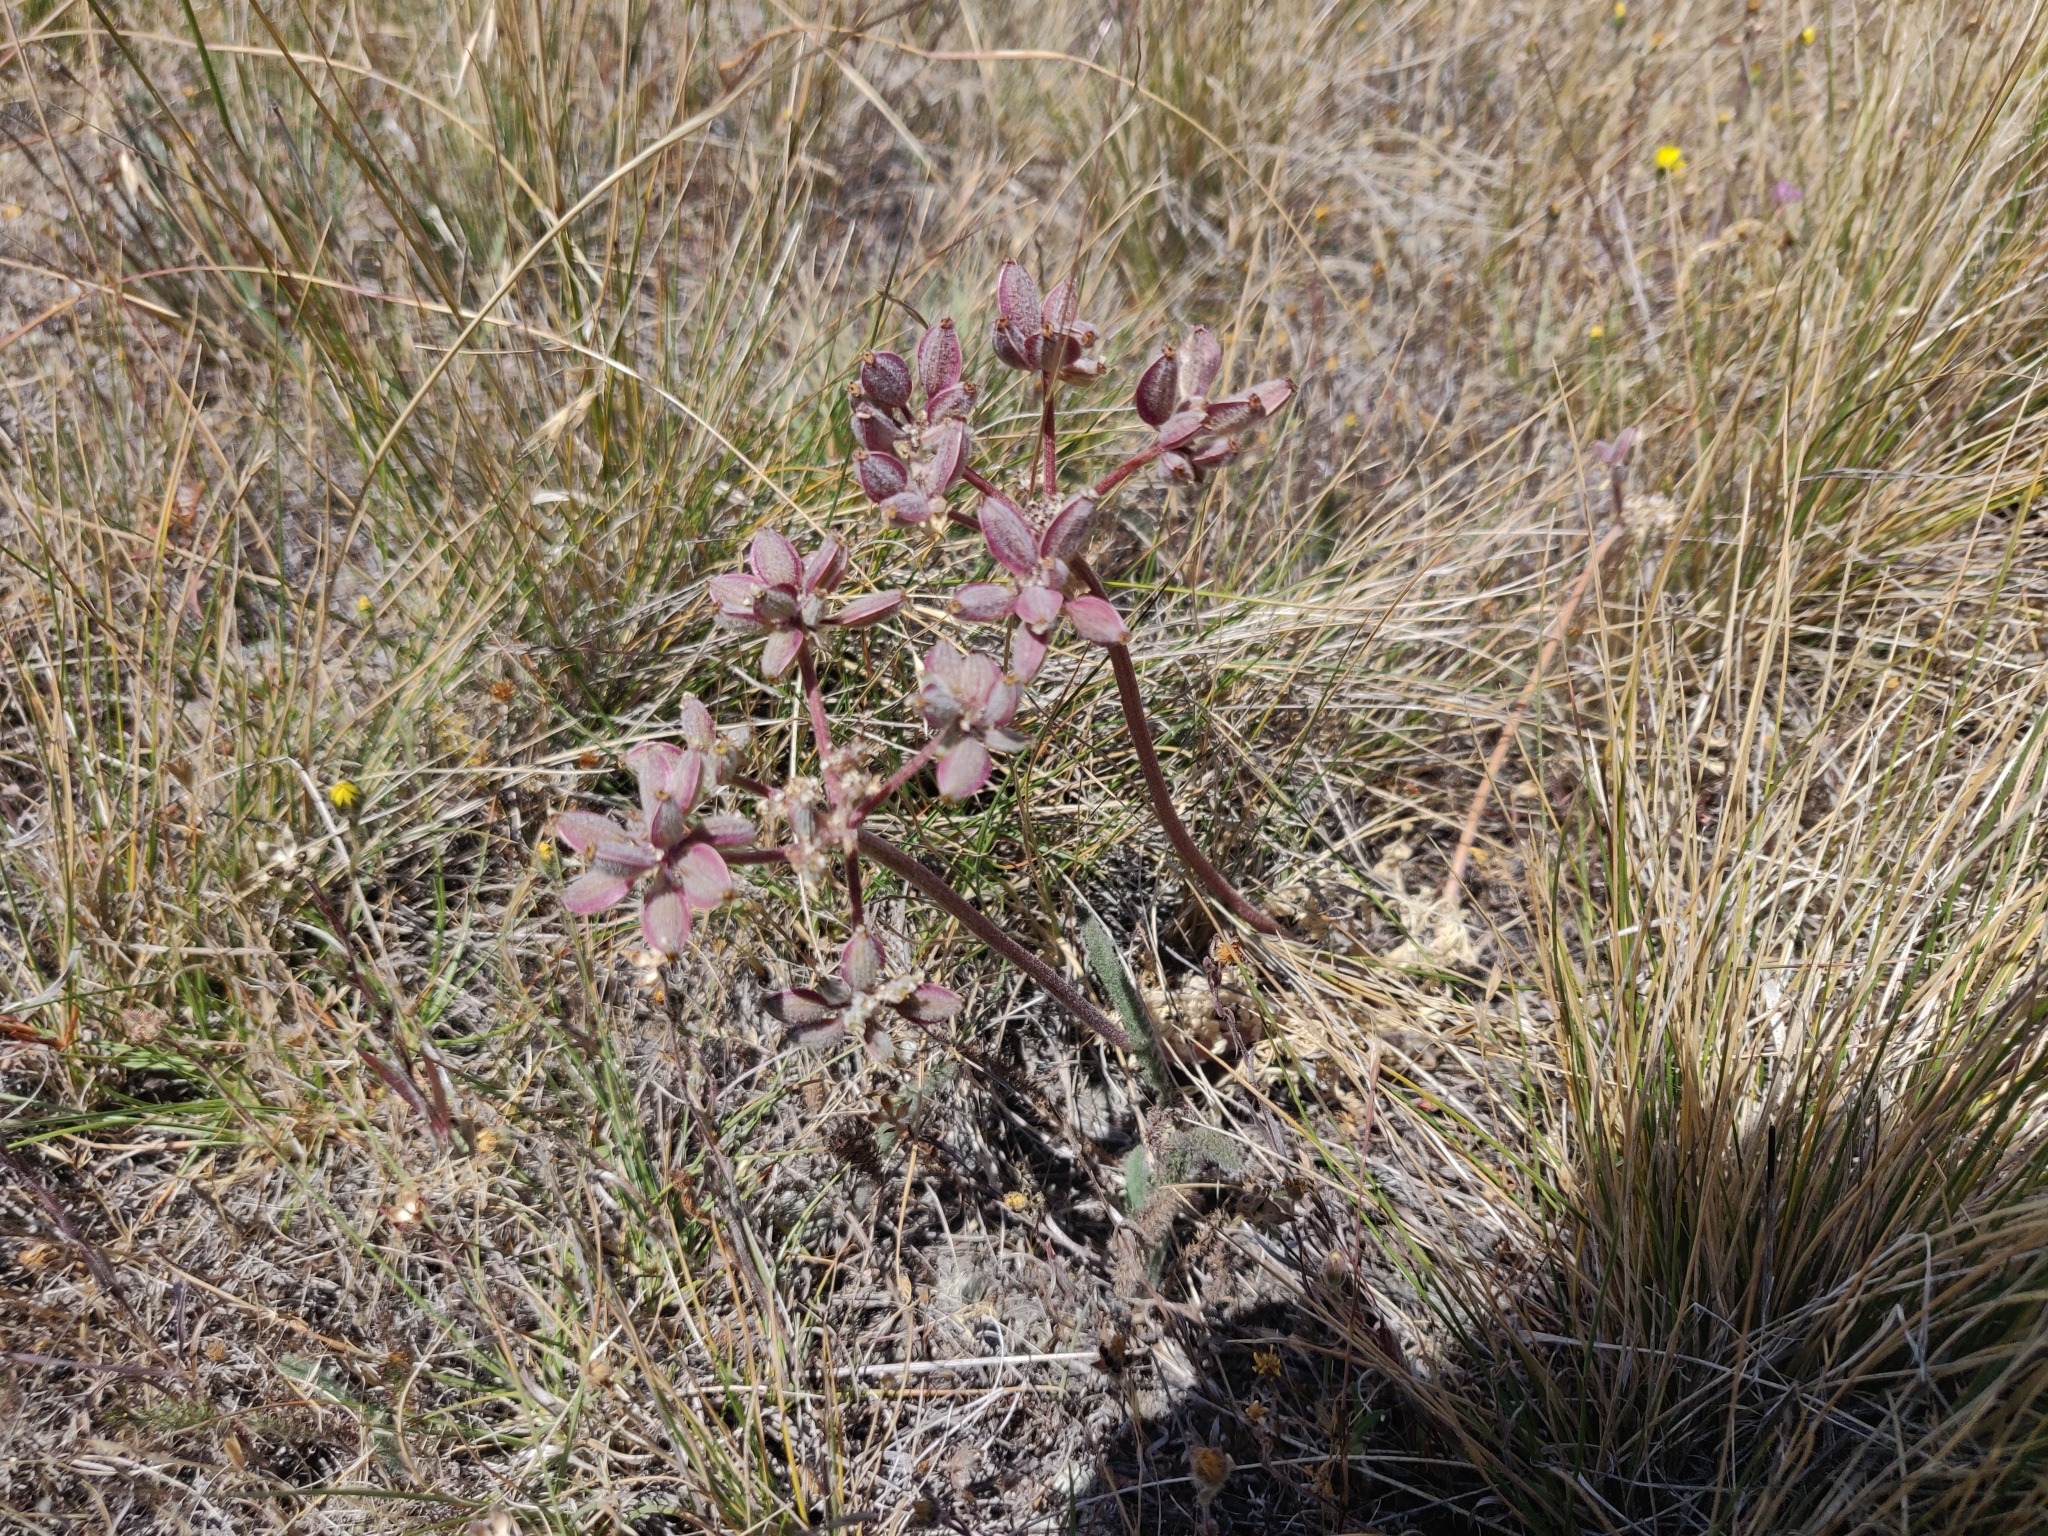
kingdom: Plantae
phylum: Tracheophyta
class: Magnoliopsida
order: Apiales
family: Apiaceae
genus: Lomatium
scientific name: Lomatium dasycarpum
